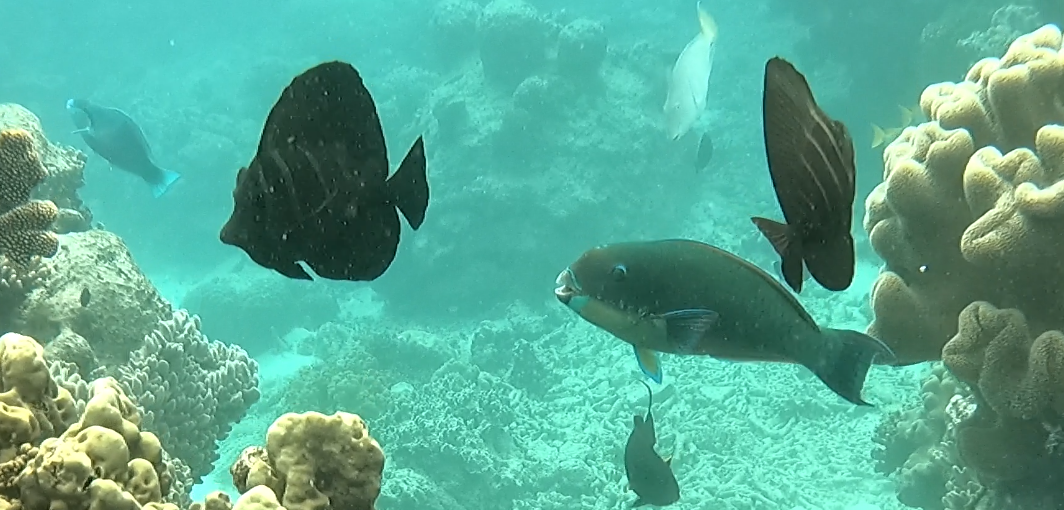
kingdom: Animalia
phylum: Chordata
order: Perciformes
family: Acanthuridae
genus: Zebrasoma
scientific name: Zebrasoma veliferum
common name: Sailfin surgeonfish
